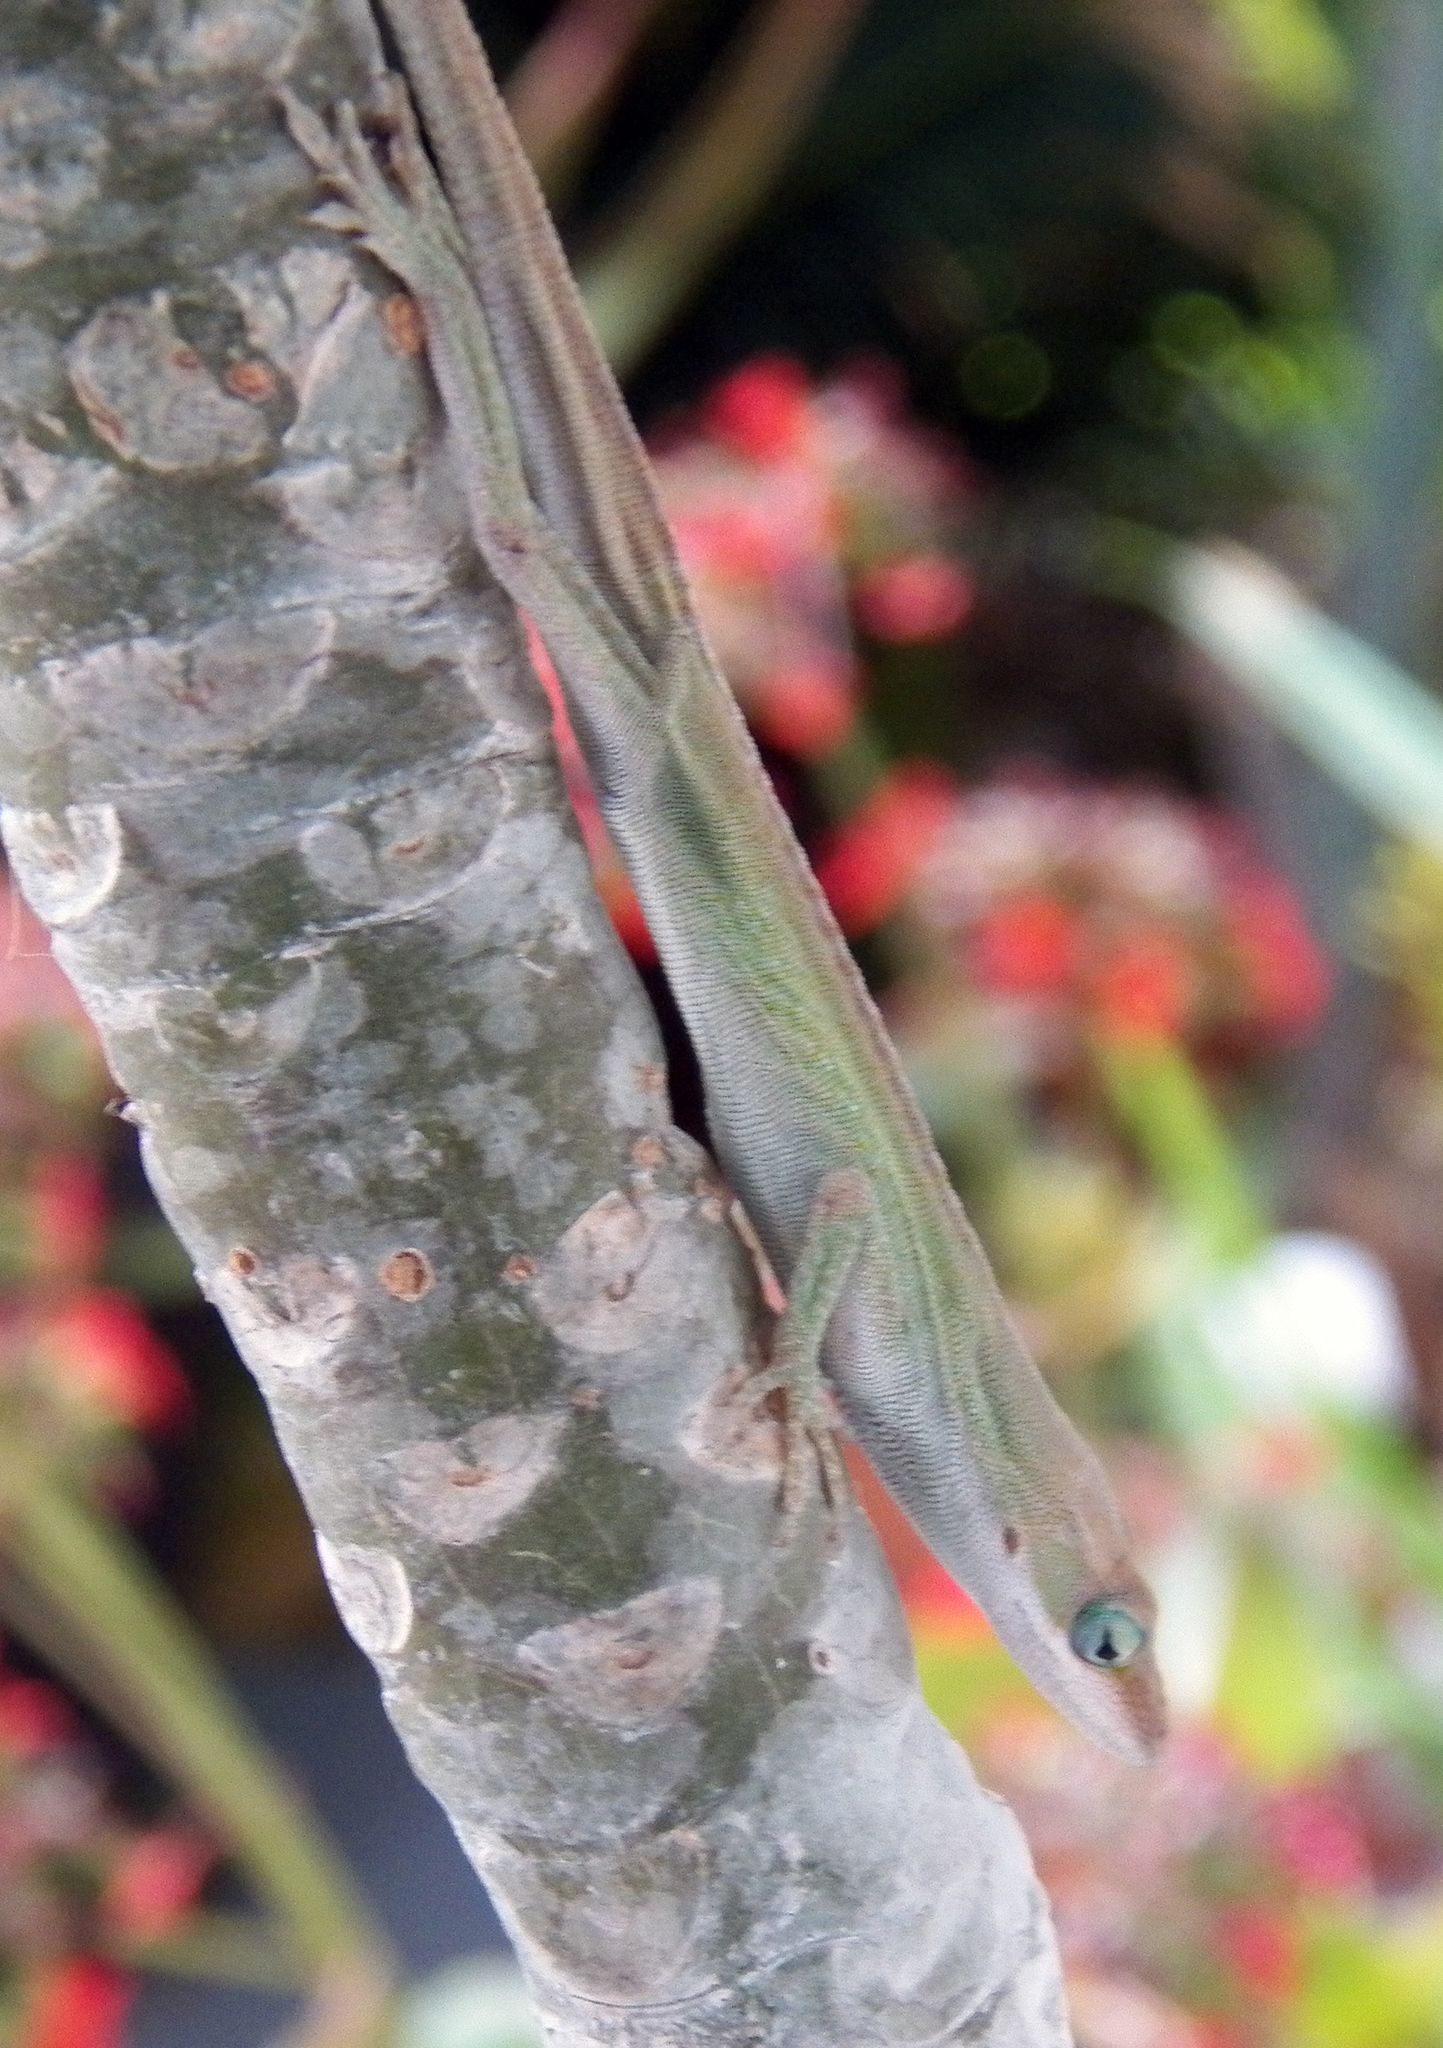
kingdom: Animalia
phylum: Chordata
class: Squamata
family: Dactyloidae
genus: Anolis
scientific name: Anolis carolinensis
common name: Green anole
